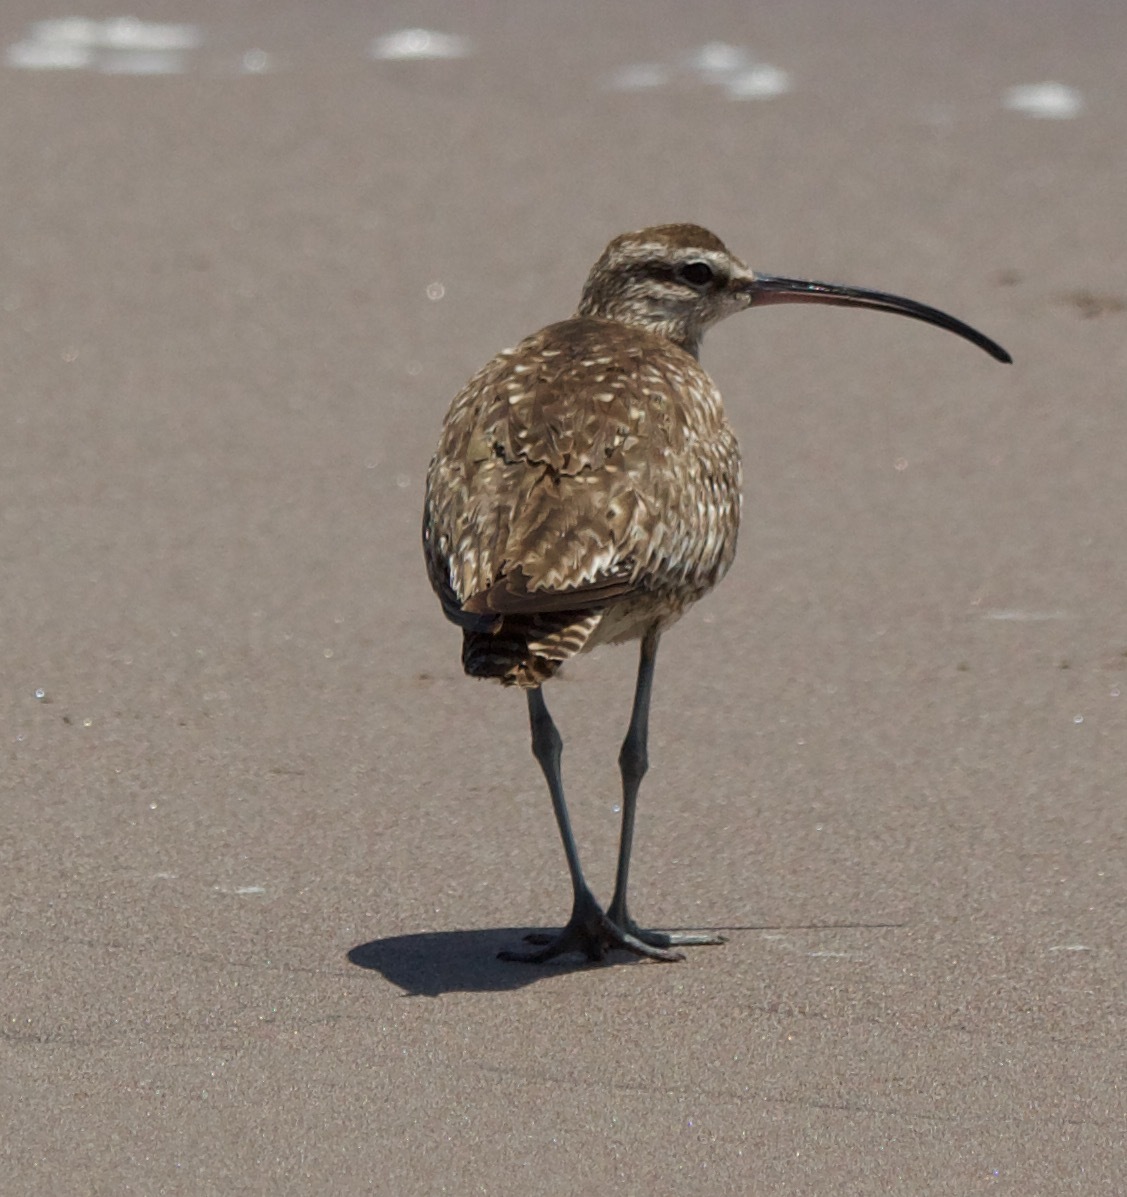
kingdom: Animalia
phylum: Chordata
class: Aves
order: Charadriiformes
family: Scolopacidae
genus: Numenius
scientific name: Numenius phaeopus
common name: Whimbrel
